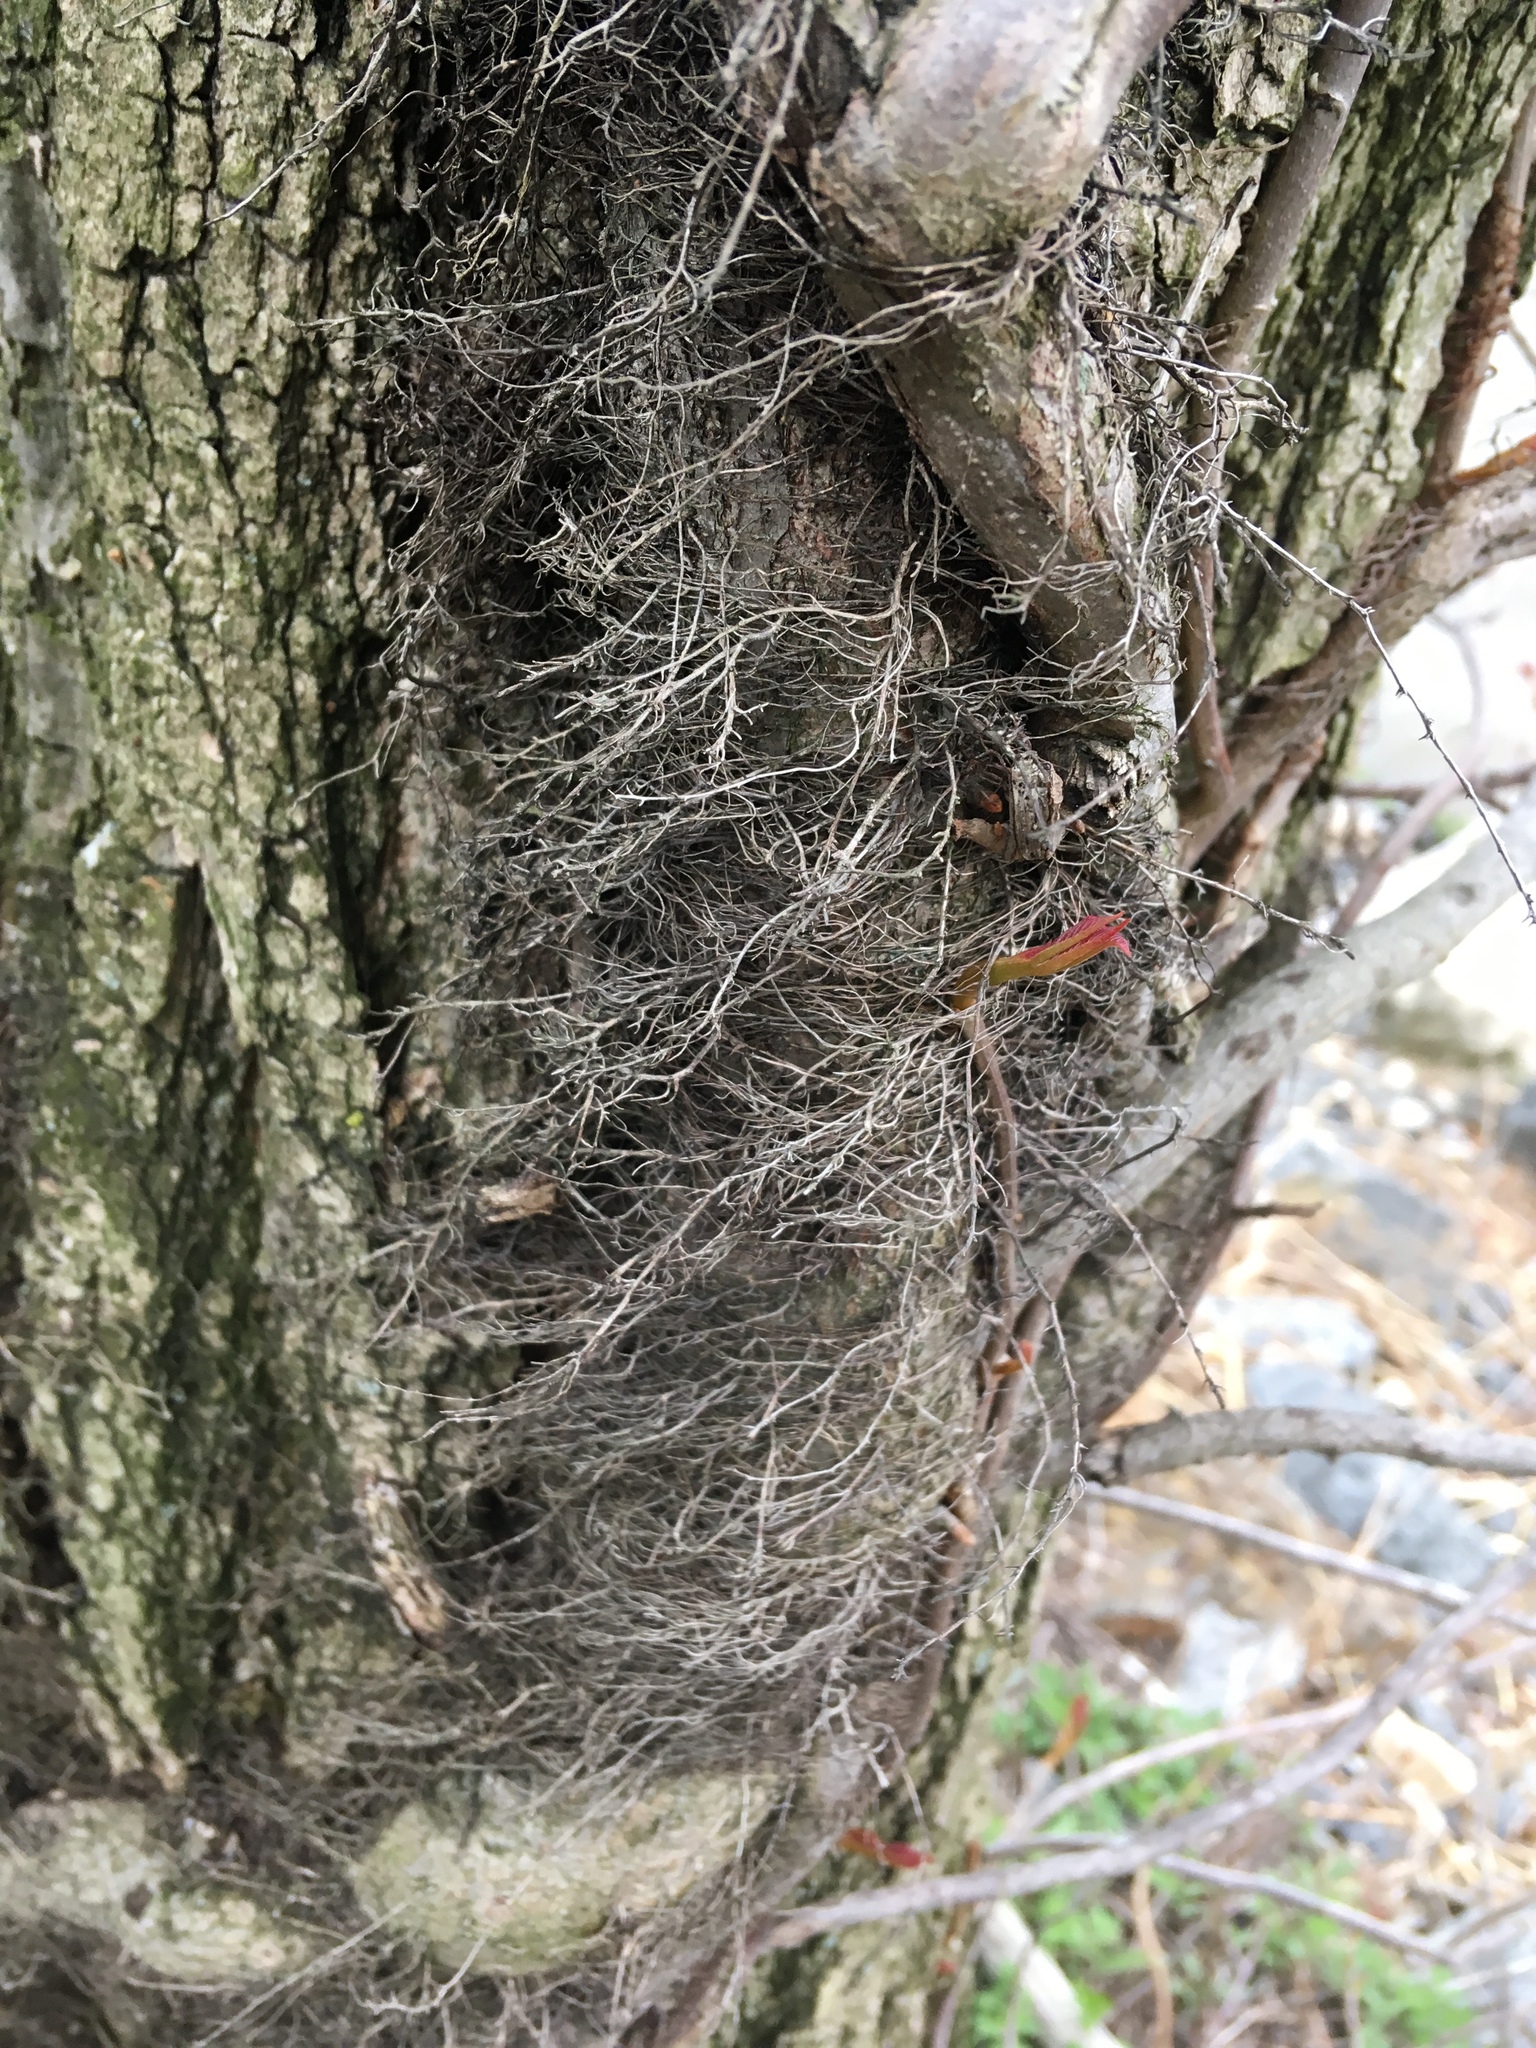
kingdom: Plantae
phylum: Tracheophyta
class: Magnoliopsida
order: Sapindales
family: Anacardiaceae
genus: Toxicodendron
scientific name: Toxicodendron radicans
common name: Poison ivy
